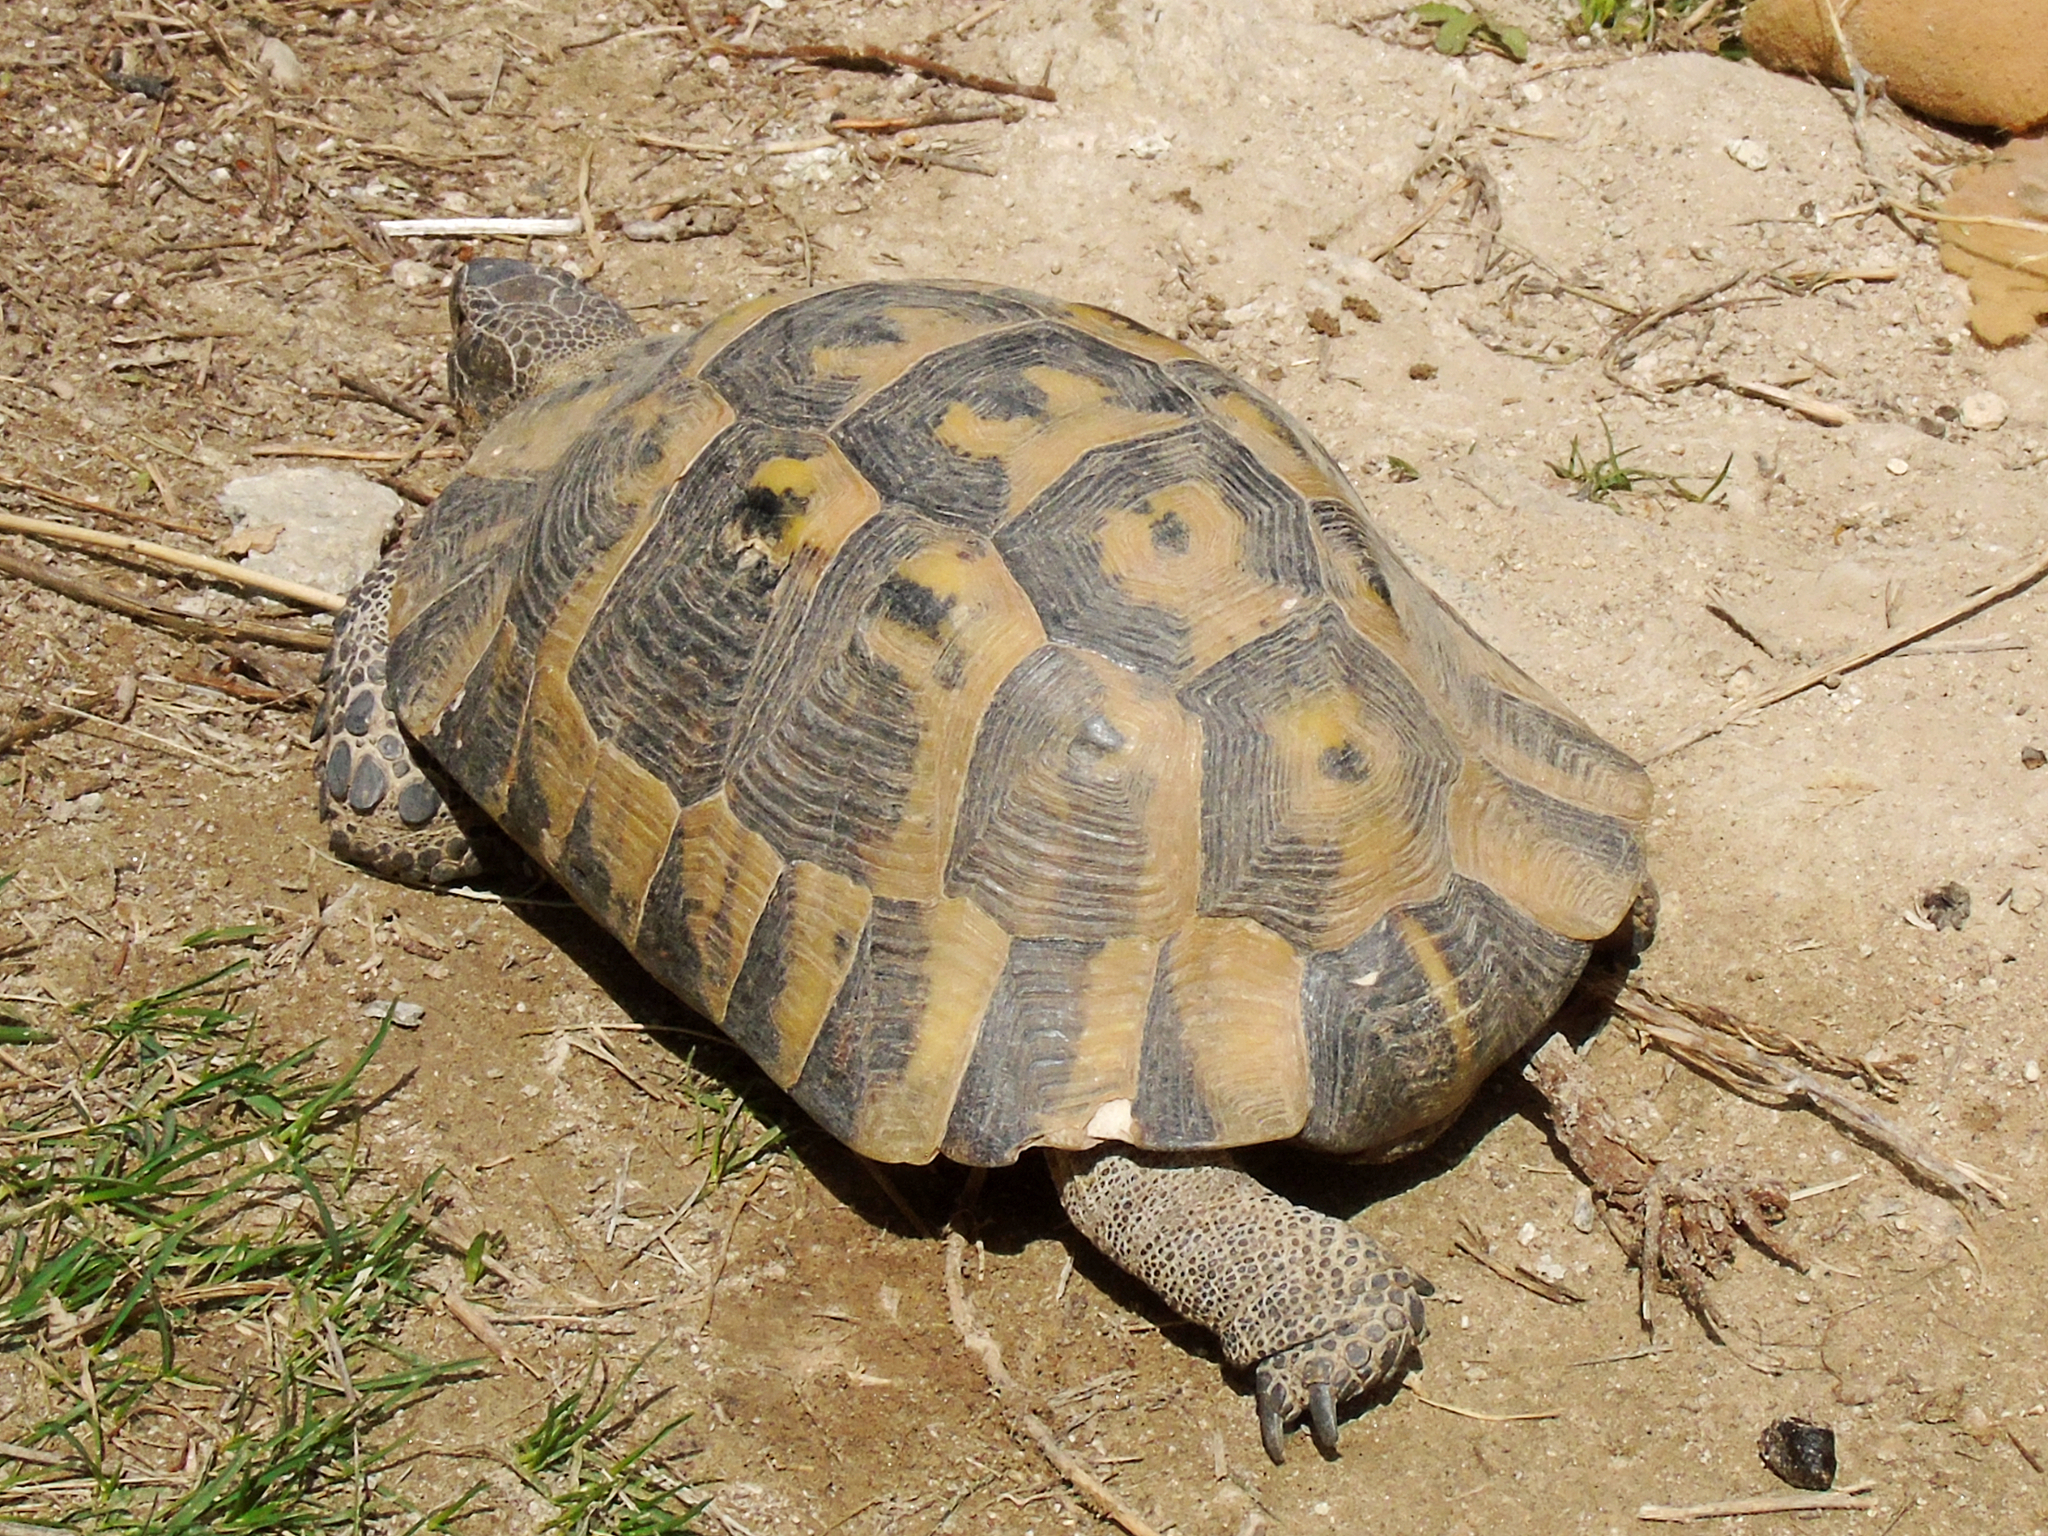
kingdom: Animalia
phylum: Chordata
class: Testudines
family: Testudinidae
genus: Testudo
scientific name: Testudo graeca
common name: Common tortoise
